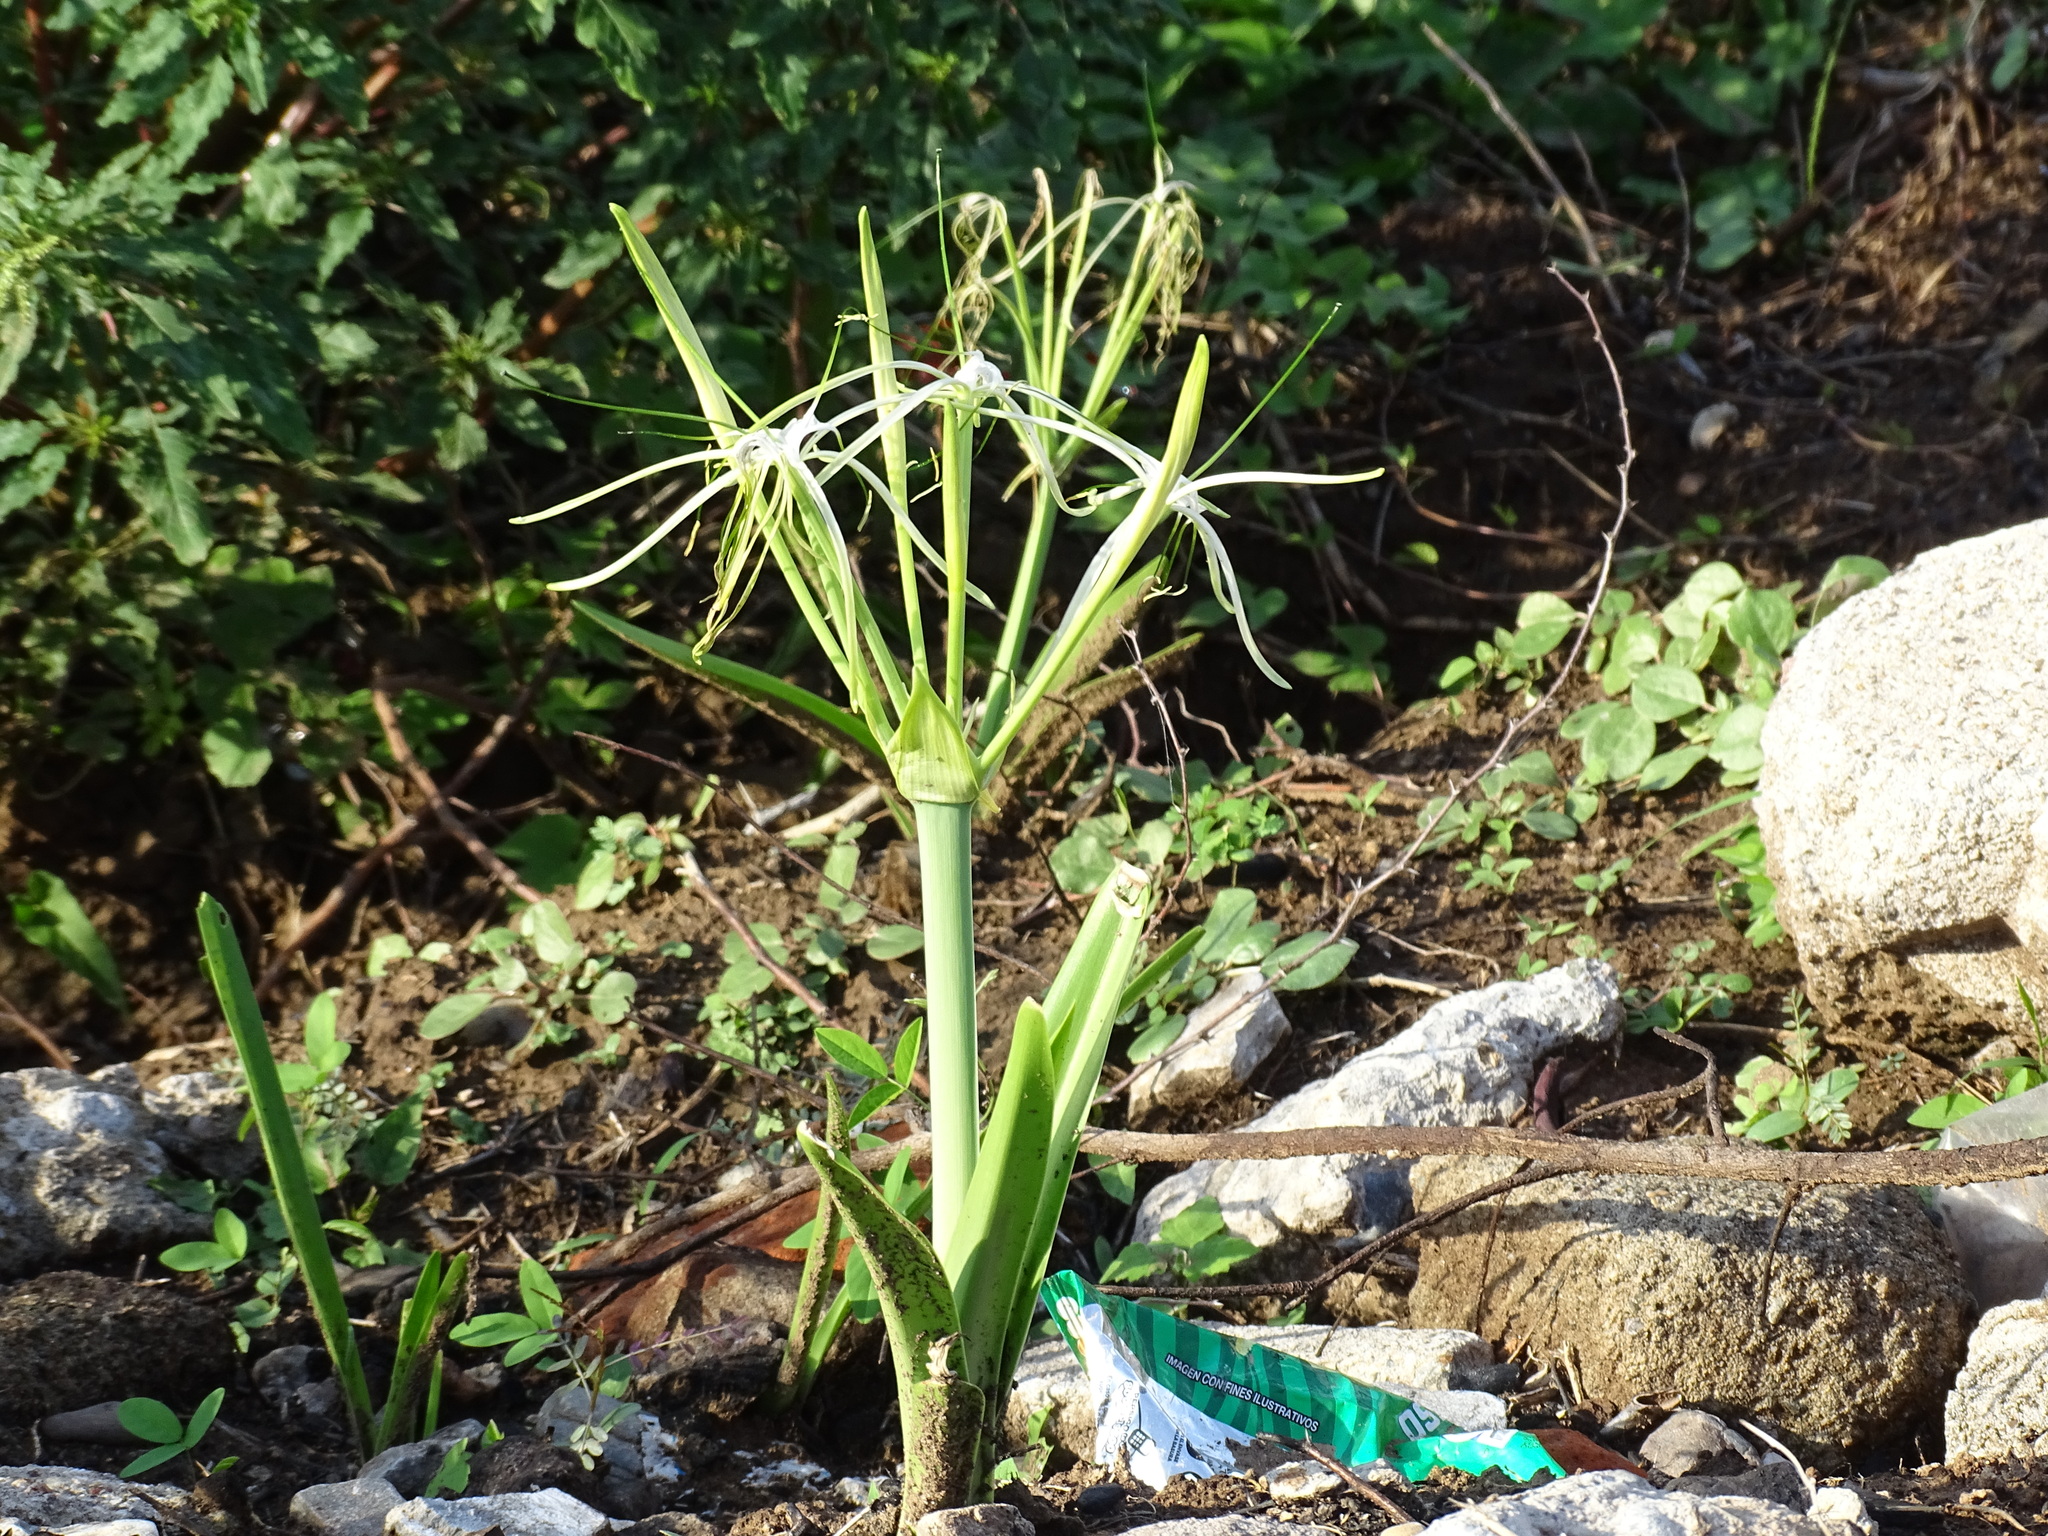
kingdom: Plantae
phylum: Tracheophyta
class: Liliopsida
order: Asparagales
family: Amaryllidaceae
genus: Hymenocallis
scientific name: Hymenocallis littoralis
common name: Beach spiderlily
